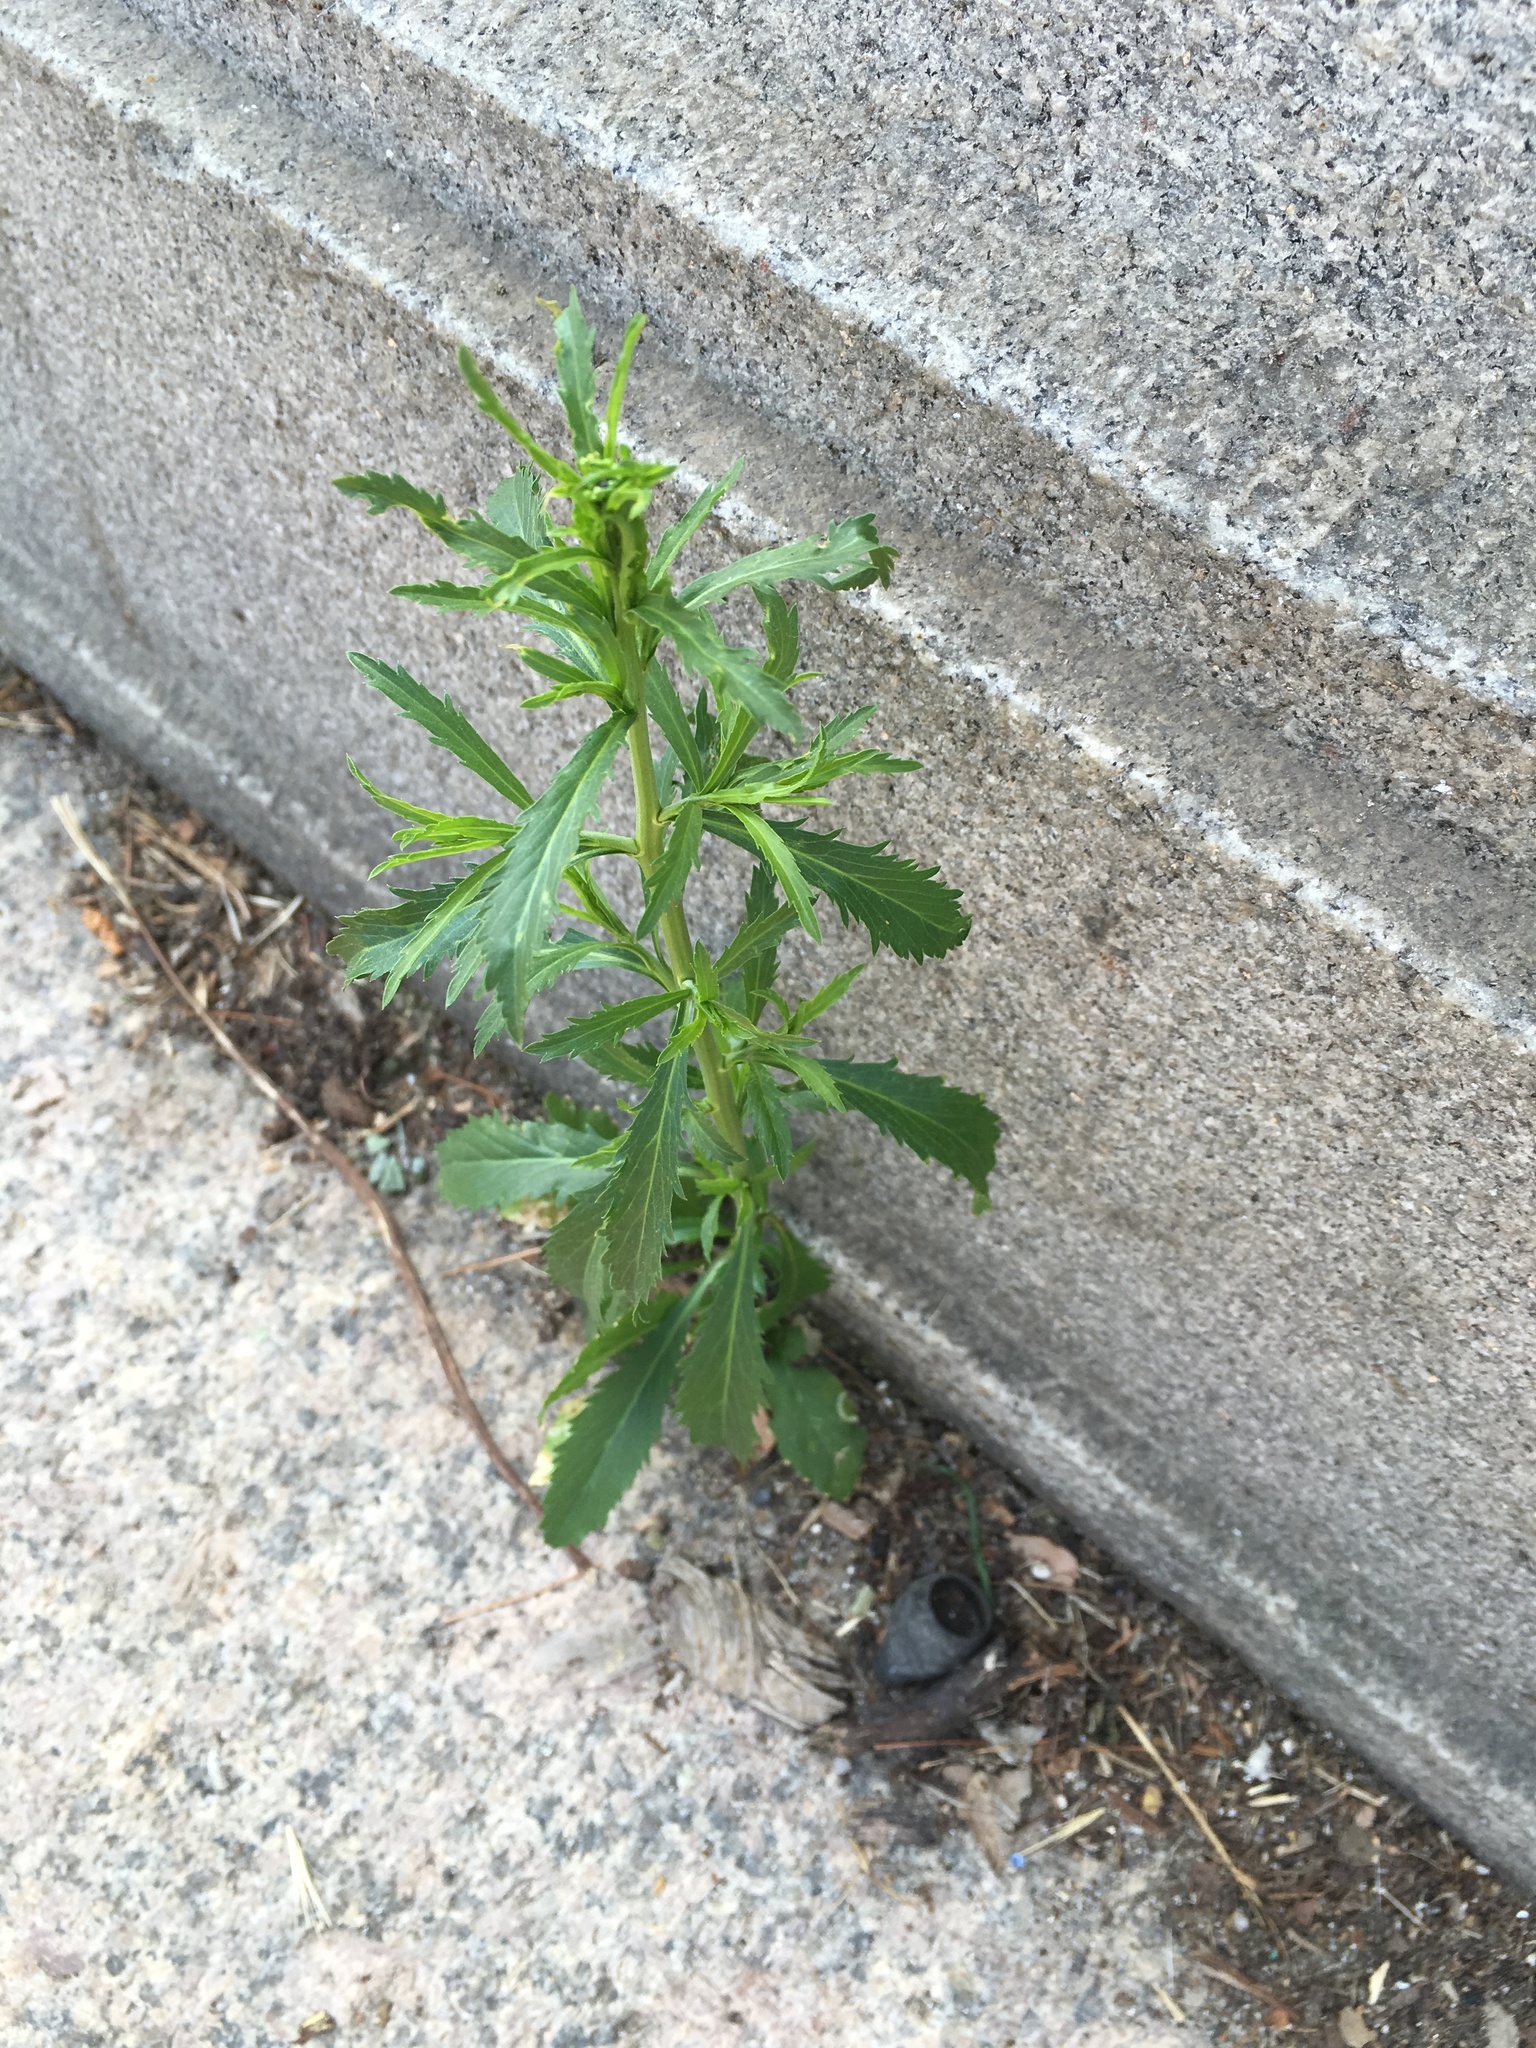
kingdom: Plantae
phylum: Tracheophyta
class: Magnoliopsida
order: Brassicales
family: Brassicaceae
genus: Lepidium
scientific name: Lepidium virginicum
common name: Least pepperwort
